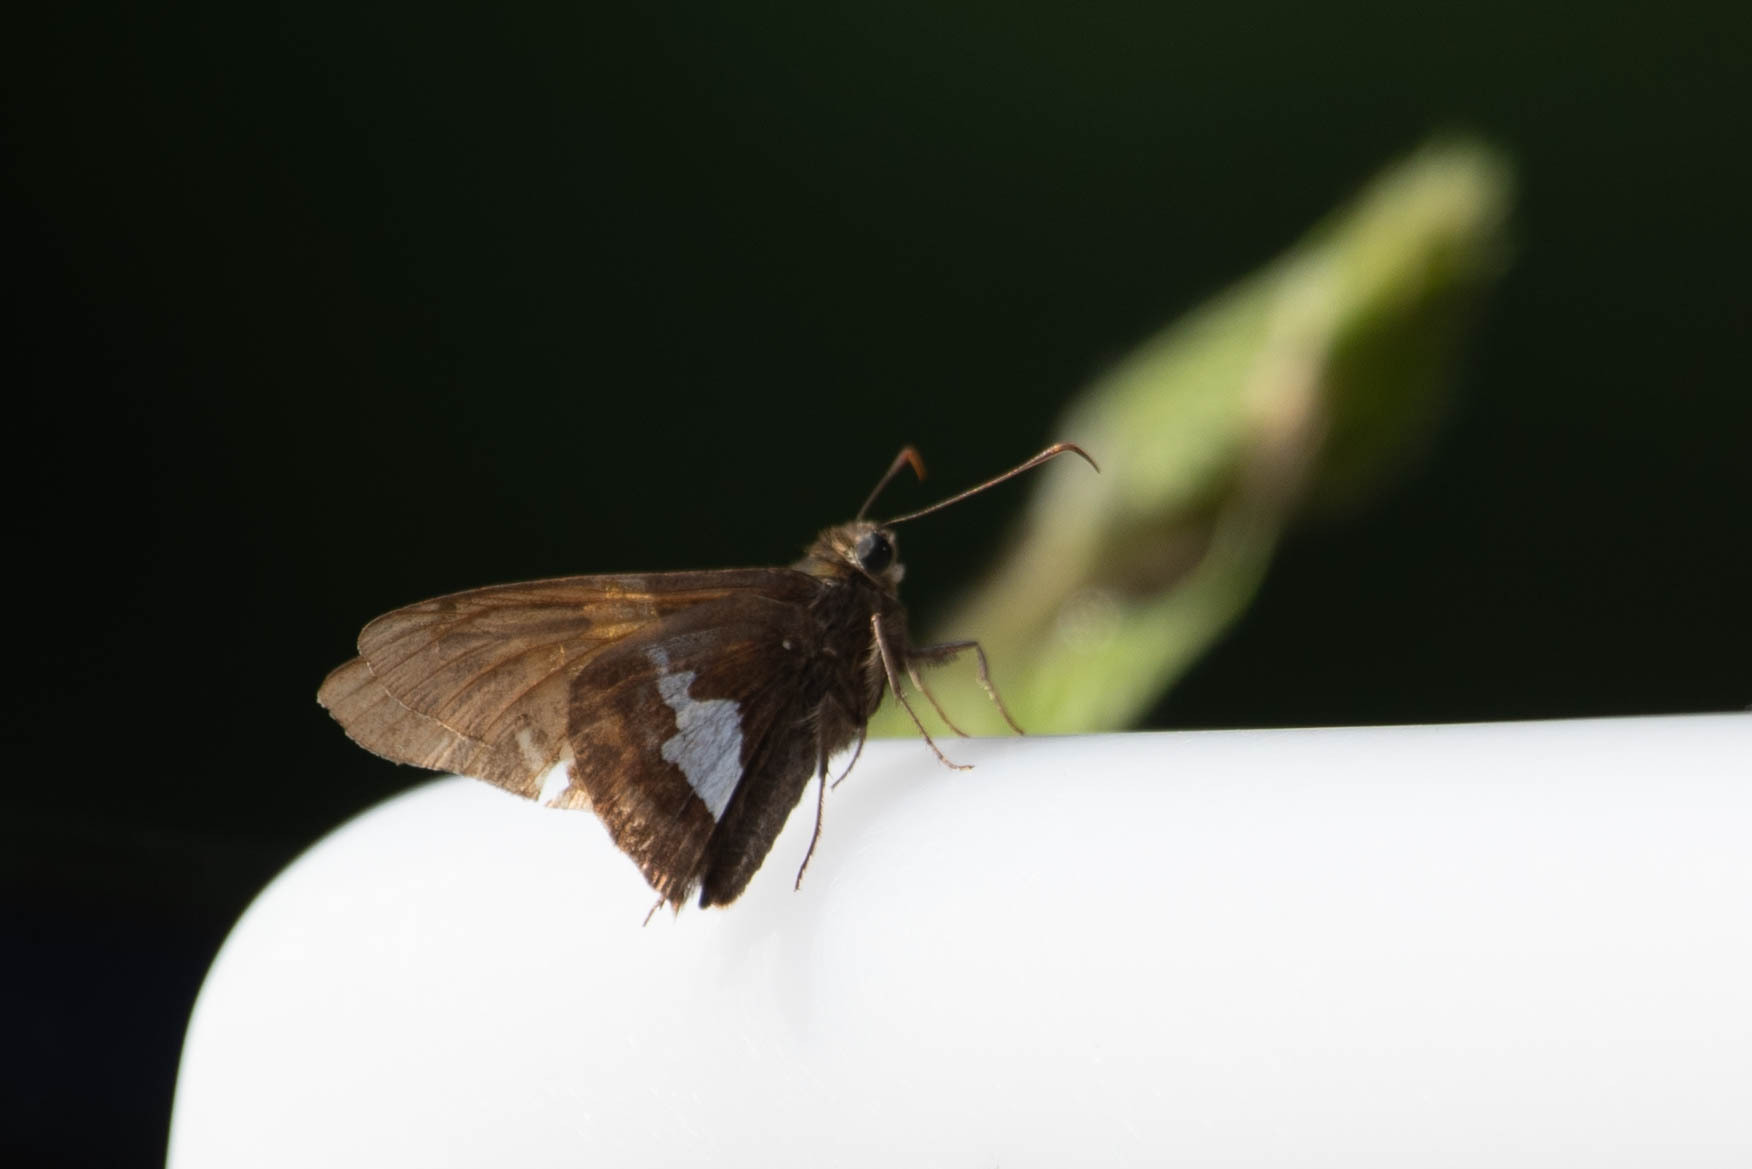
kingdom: Animalia
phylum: Arthropoda
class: Insecta
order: Lepidoptera
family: Hesperiidae
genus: Epargyreus
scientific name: Epargyreus clarus
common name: Silver-spotted skipper
